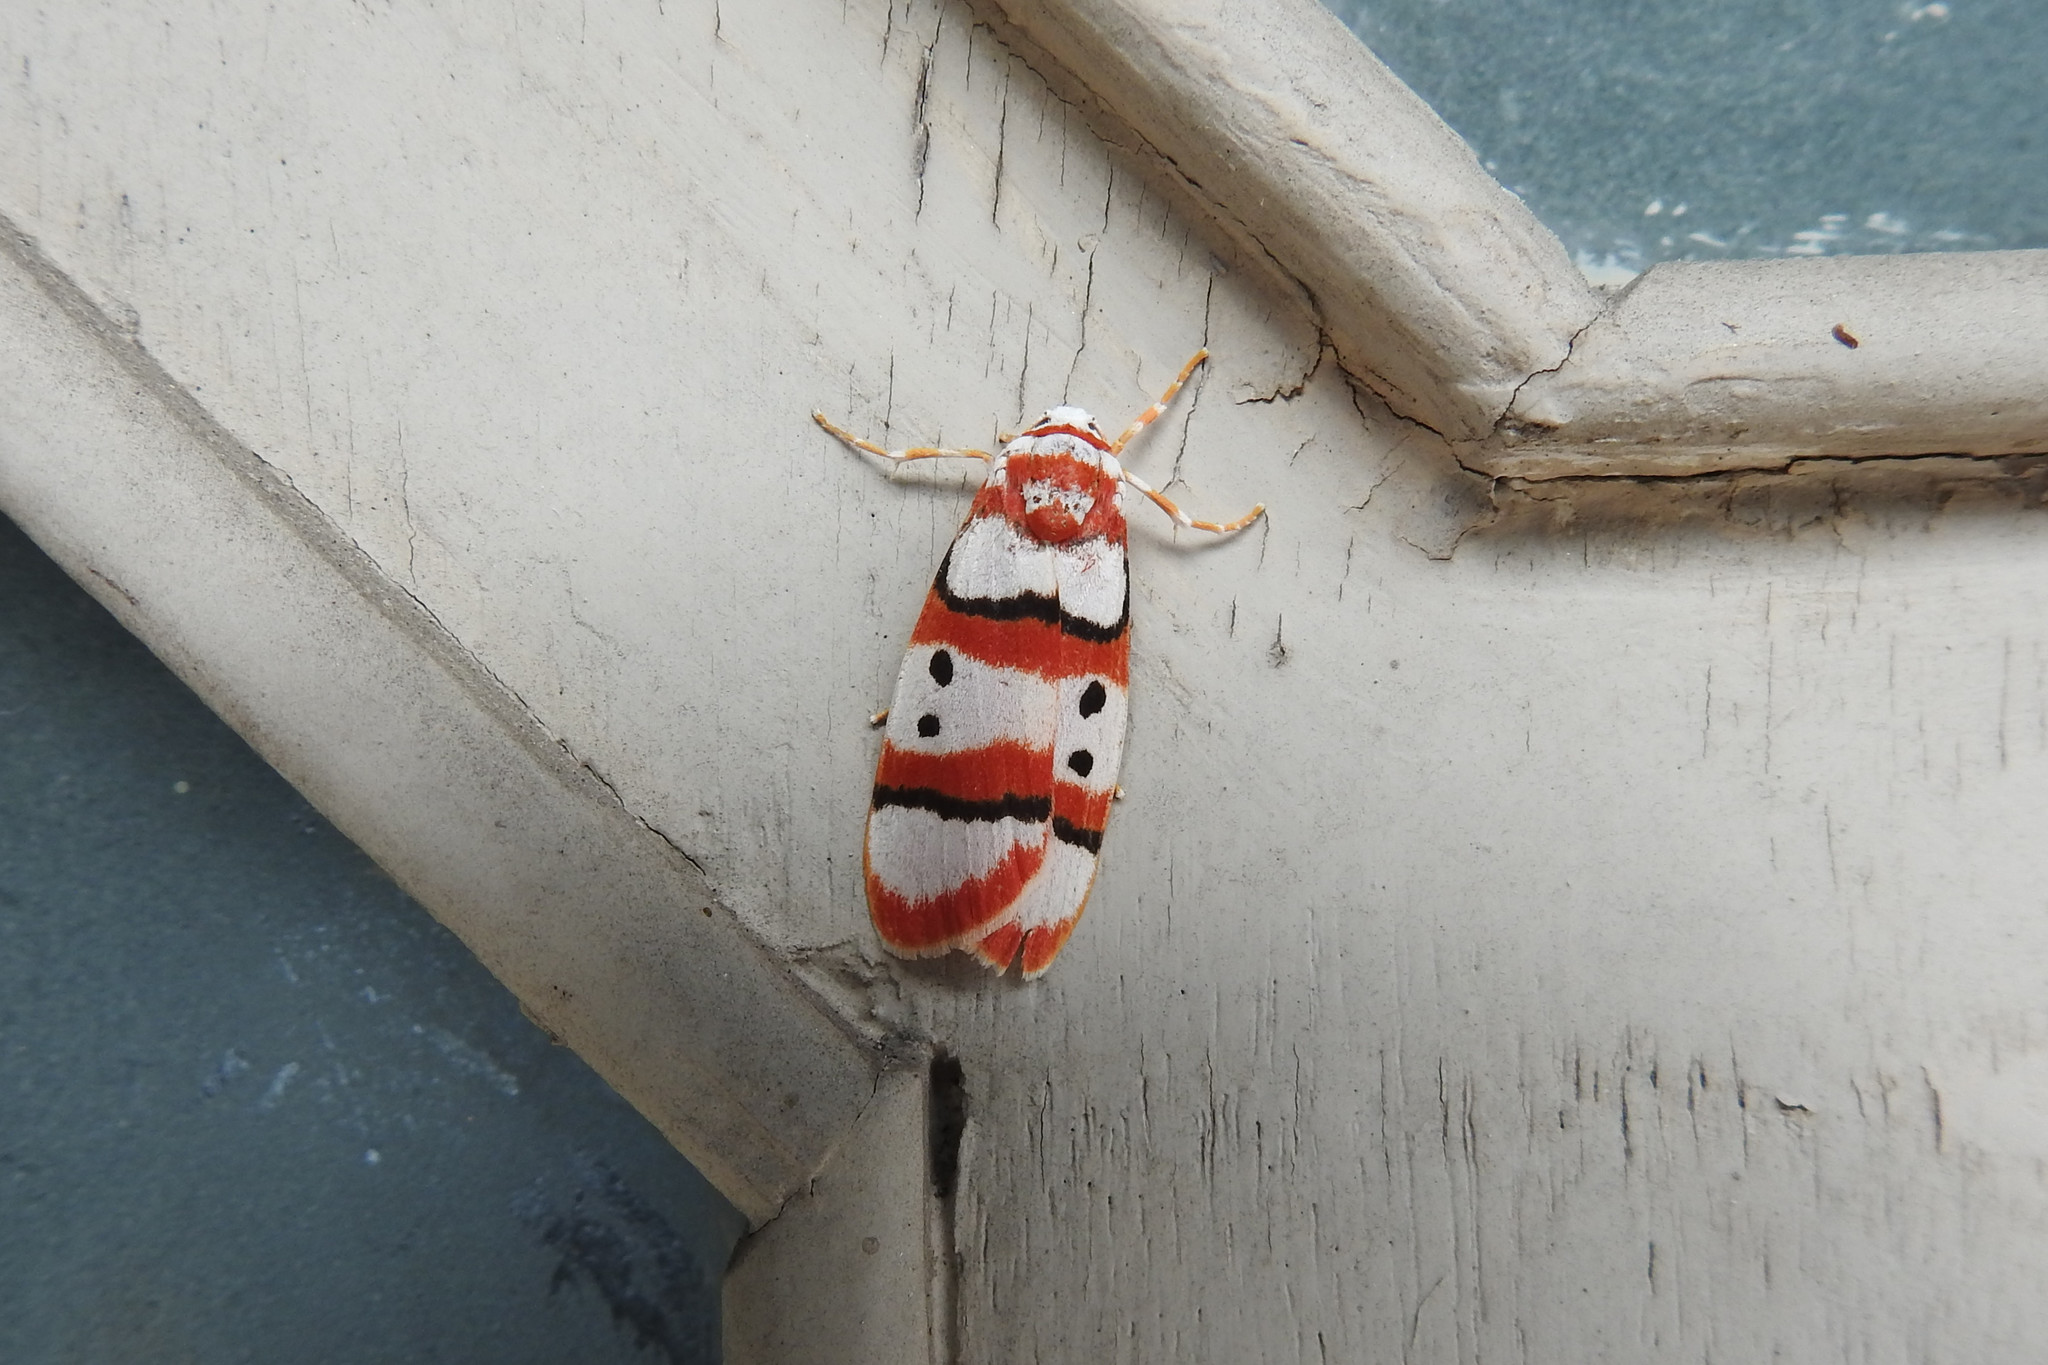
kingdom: Animalia
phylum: Arthropoda
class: Insecta
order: Lepidoptera
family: Erebidae
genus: Cyana
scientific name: Cyana coccinea
